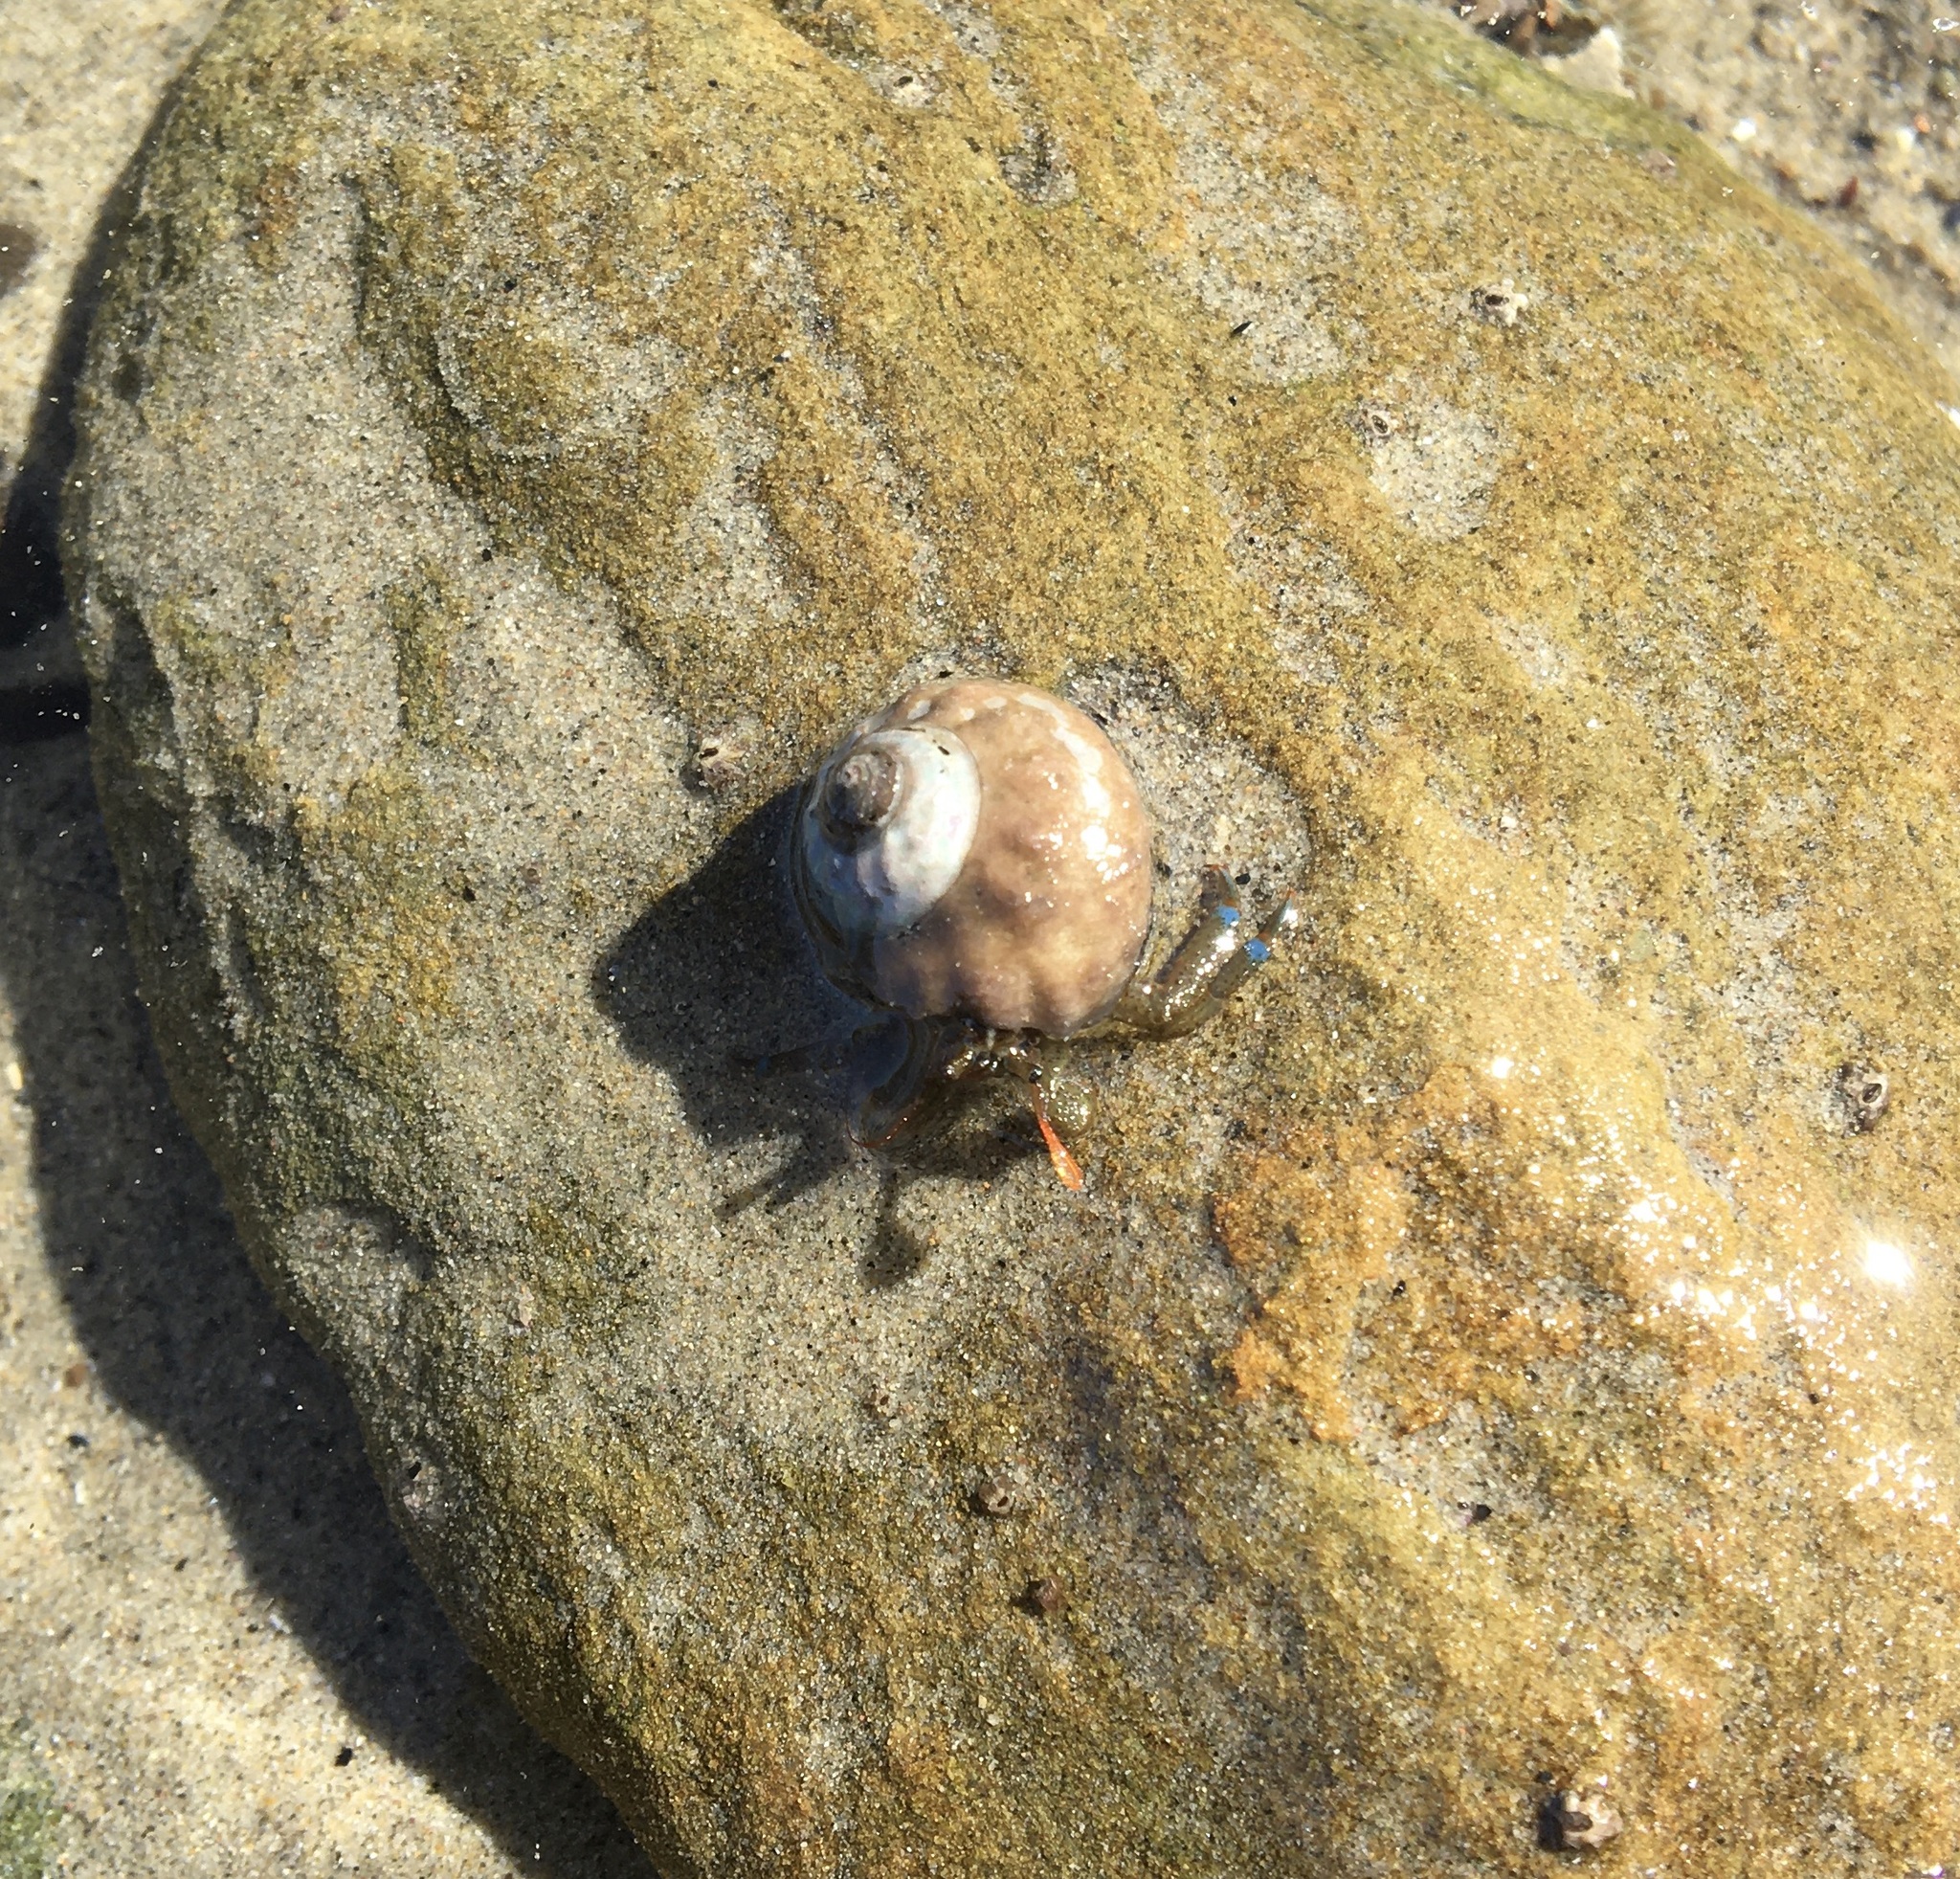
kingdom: Animalia
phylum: Arthropoda
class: Malacostraca
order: Decapoda
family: Paguridae
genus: Pagurus
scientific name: Pagurus samuelis
